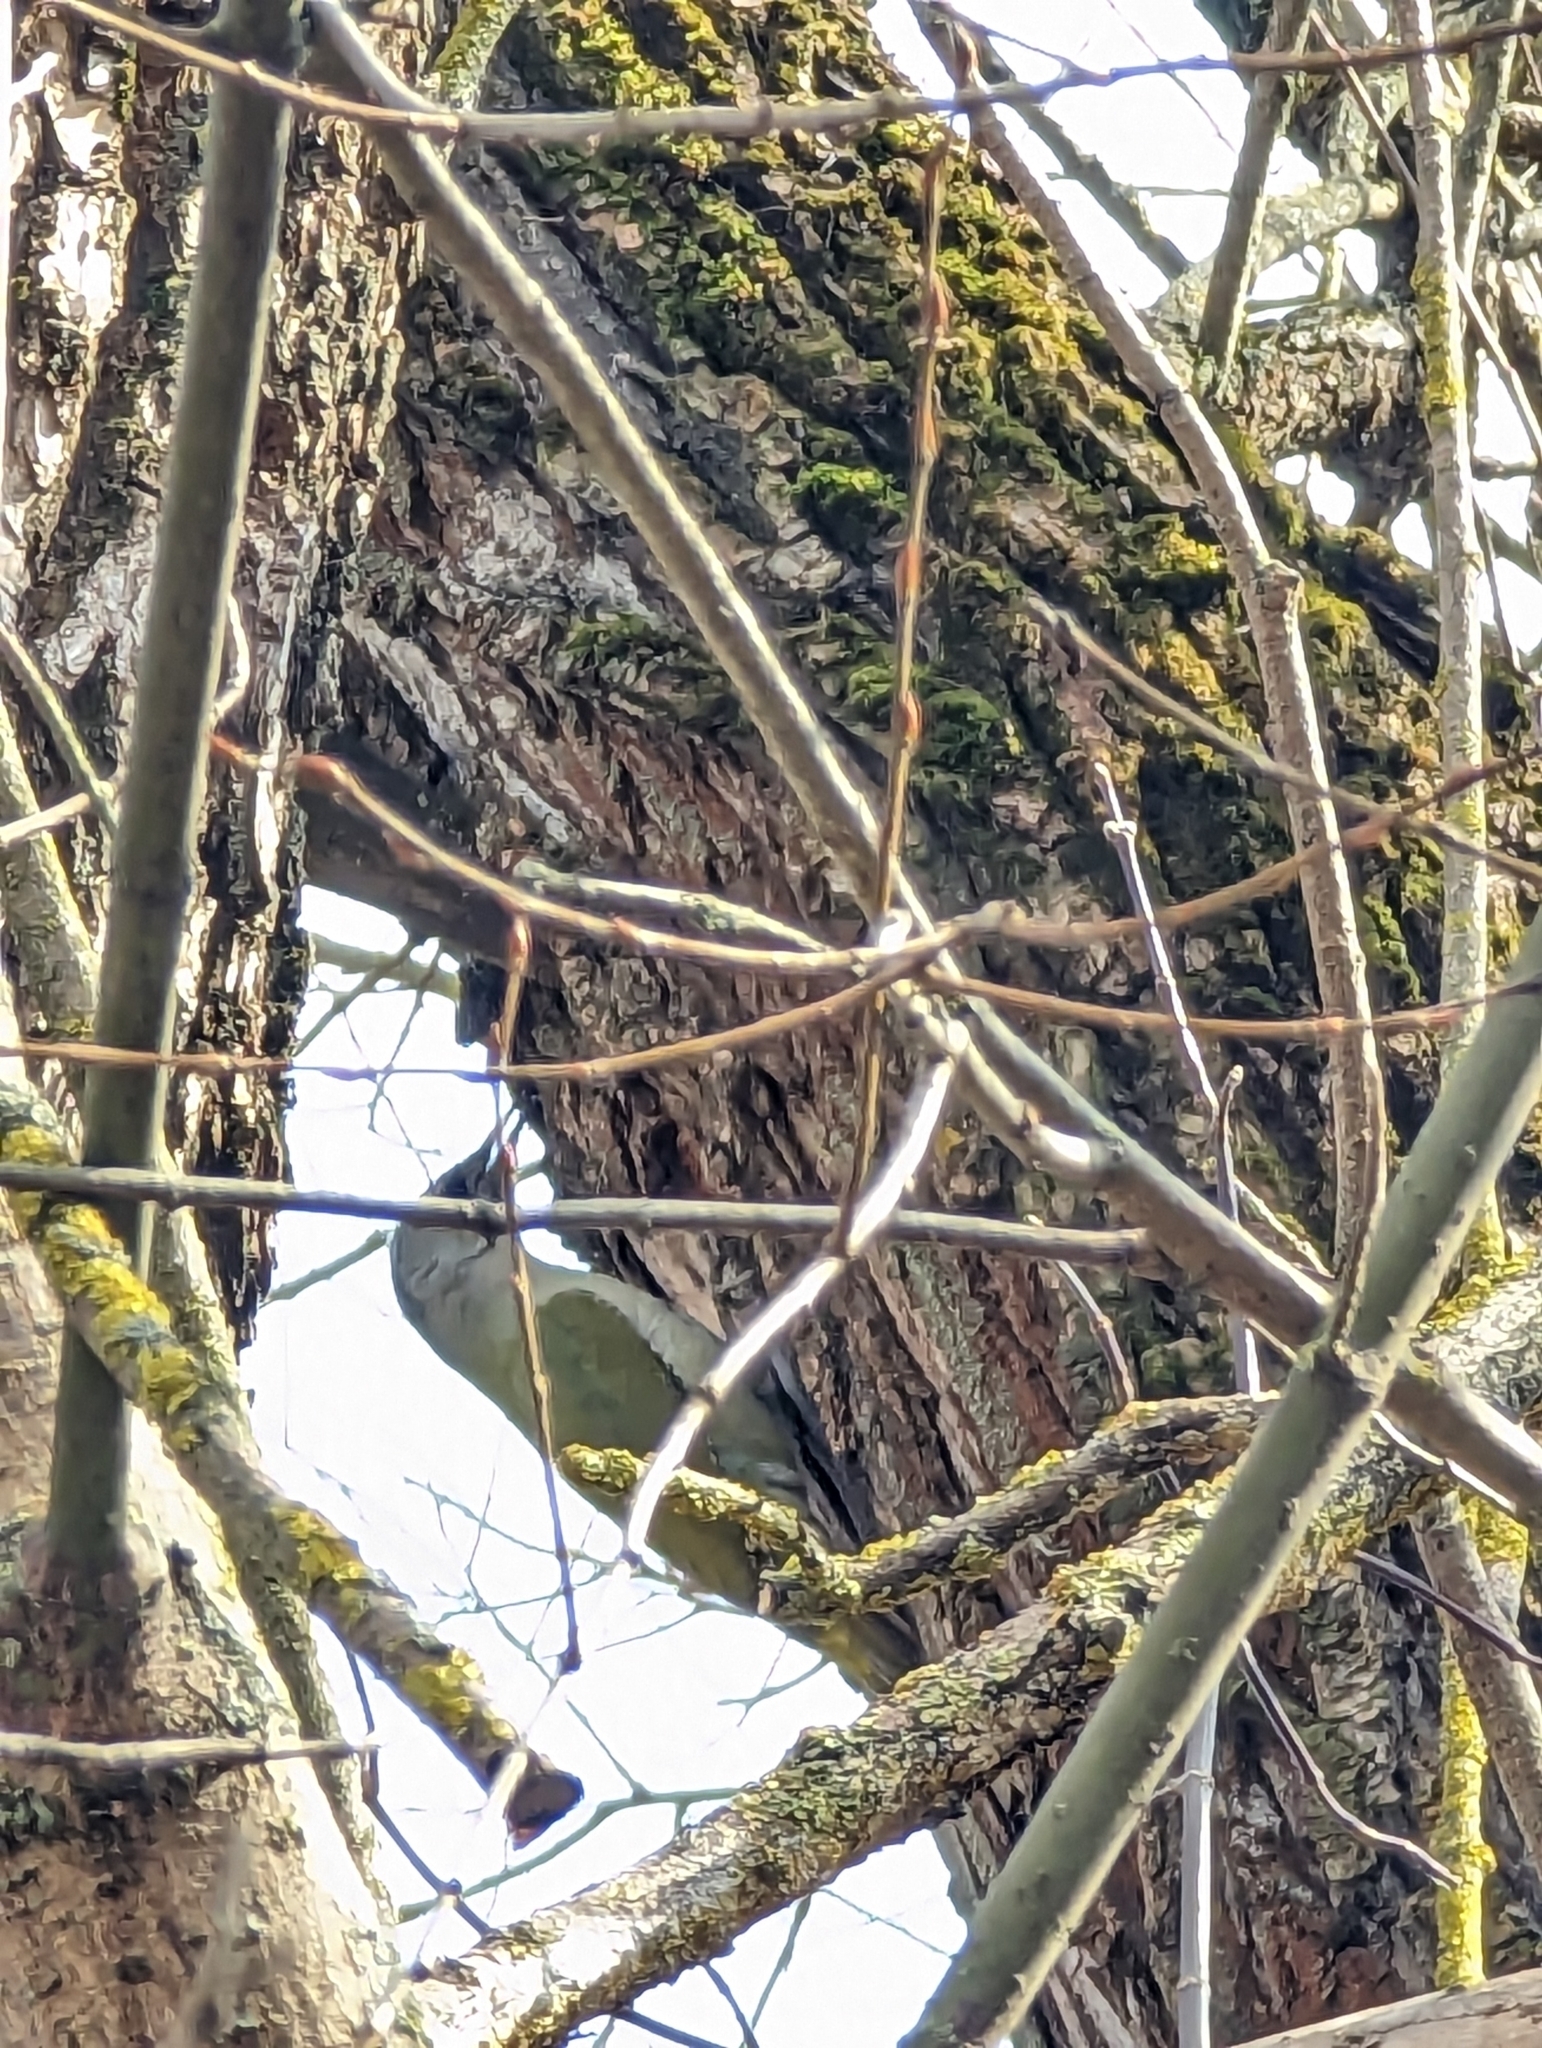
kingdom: Animalia
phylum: Chordata
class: Aves
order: Piciformes
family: Picidae
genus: Picus
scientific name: Picus canus
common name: Grey-headed woodpecker
